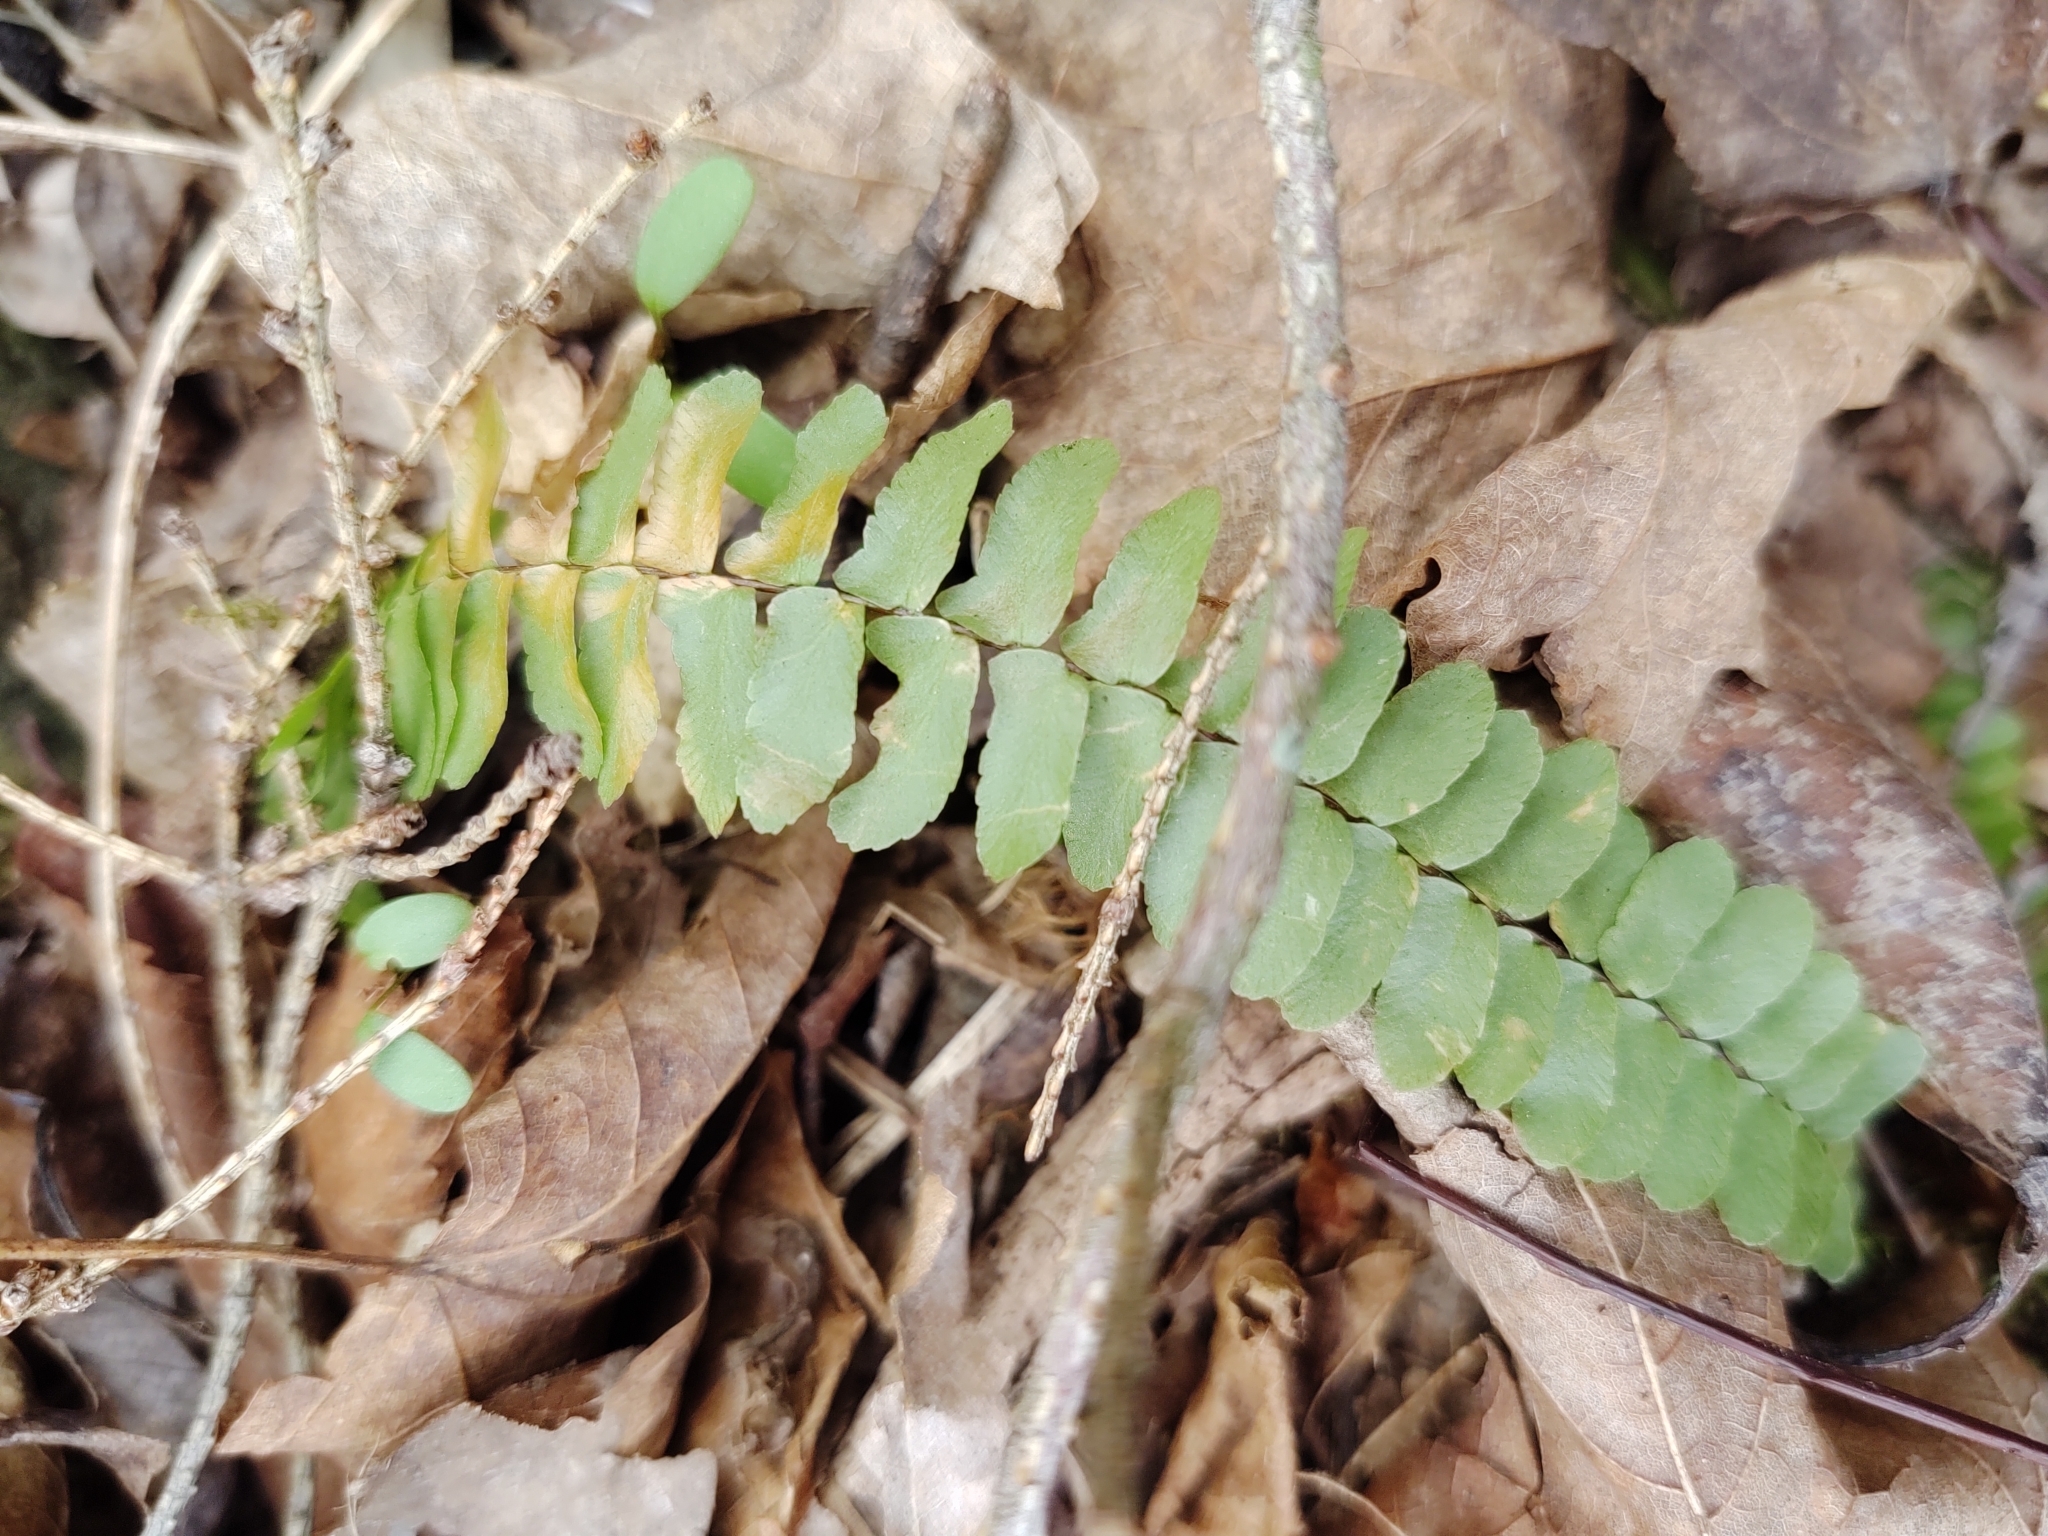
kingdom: Plantae
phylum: Tracheophyta
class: Polypodiopsida
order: Polypodiales
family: Aspleniaceae
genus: Asplenium
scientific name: Asplenium platyneuron
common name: Ebony spleenwort
